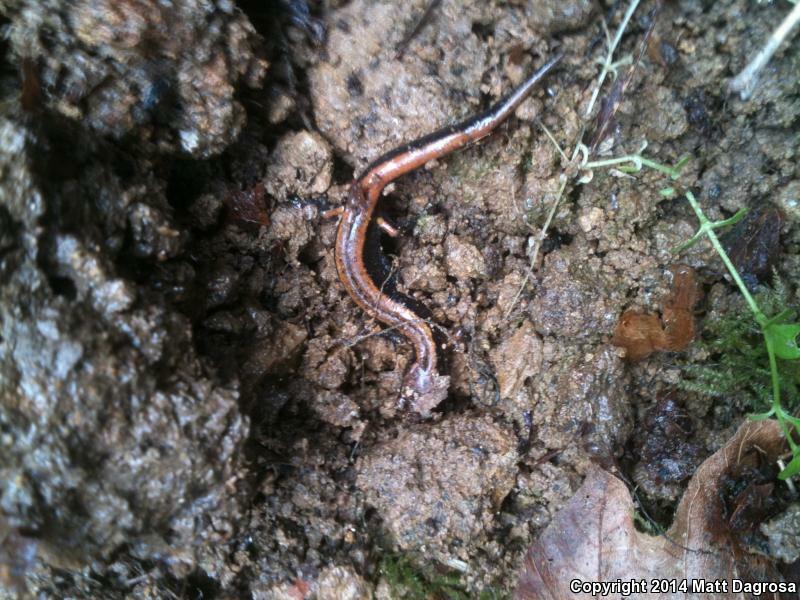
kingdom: Animalia
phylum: Chordata
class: Amphibia
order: Caudata
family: Plethodontidae
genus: Plethodon
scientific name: Plethodon vehiculum
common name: Western red-backed salamander
